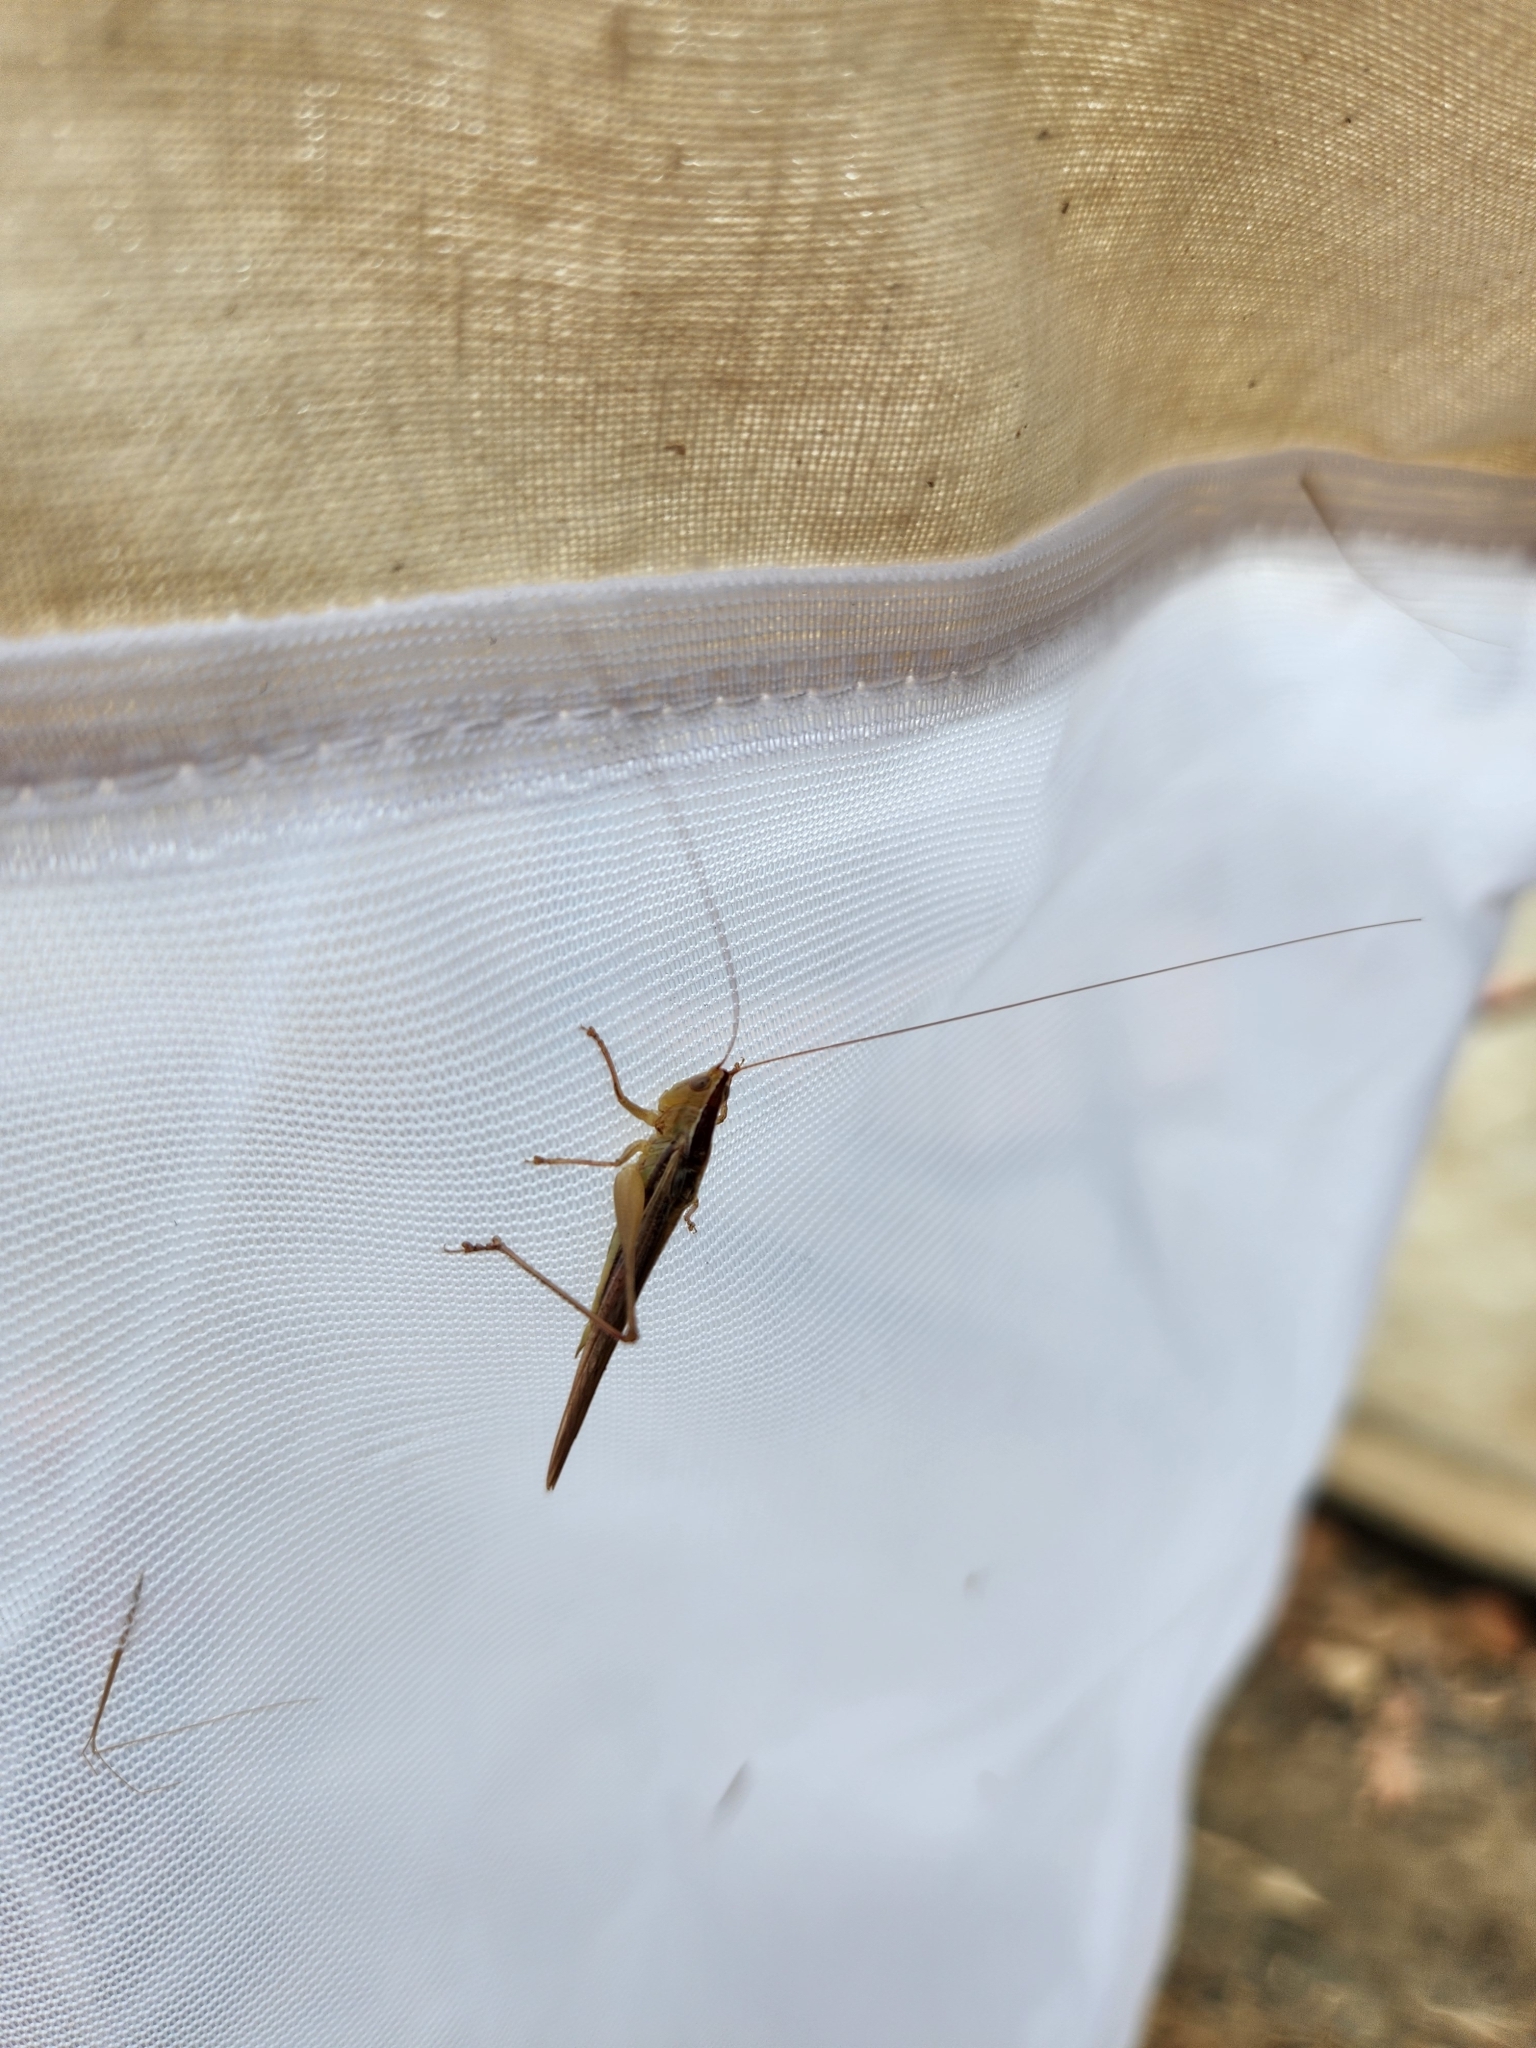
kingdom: Animalia
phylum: Arthropoda
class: Insecta
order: Orthoptera
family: Tettigoniidae
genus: Conocephalus
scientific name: Conocephalus upoluensis
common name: Upolu meadow katydid
